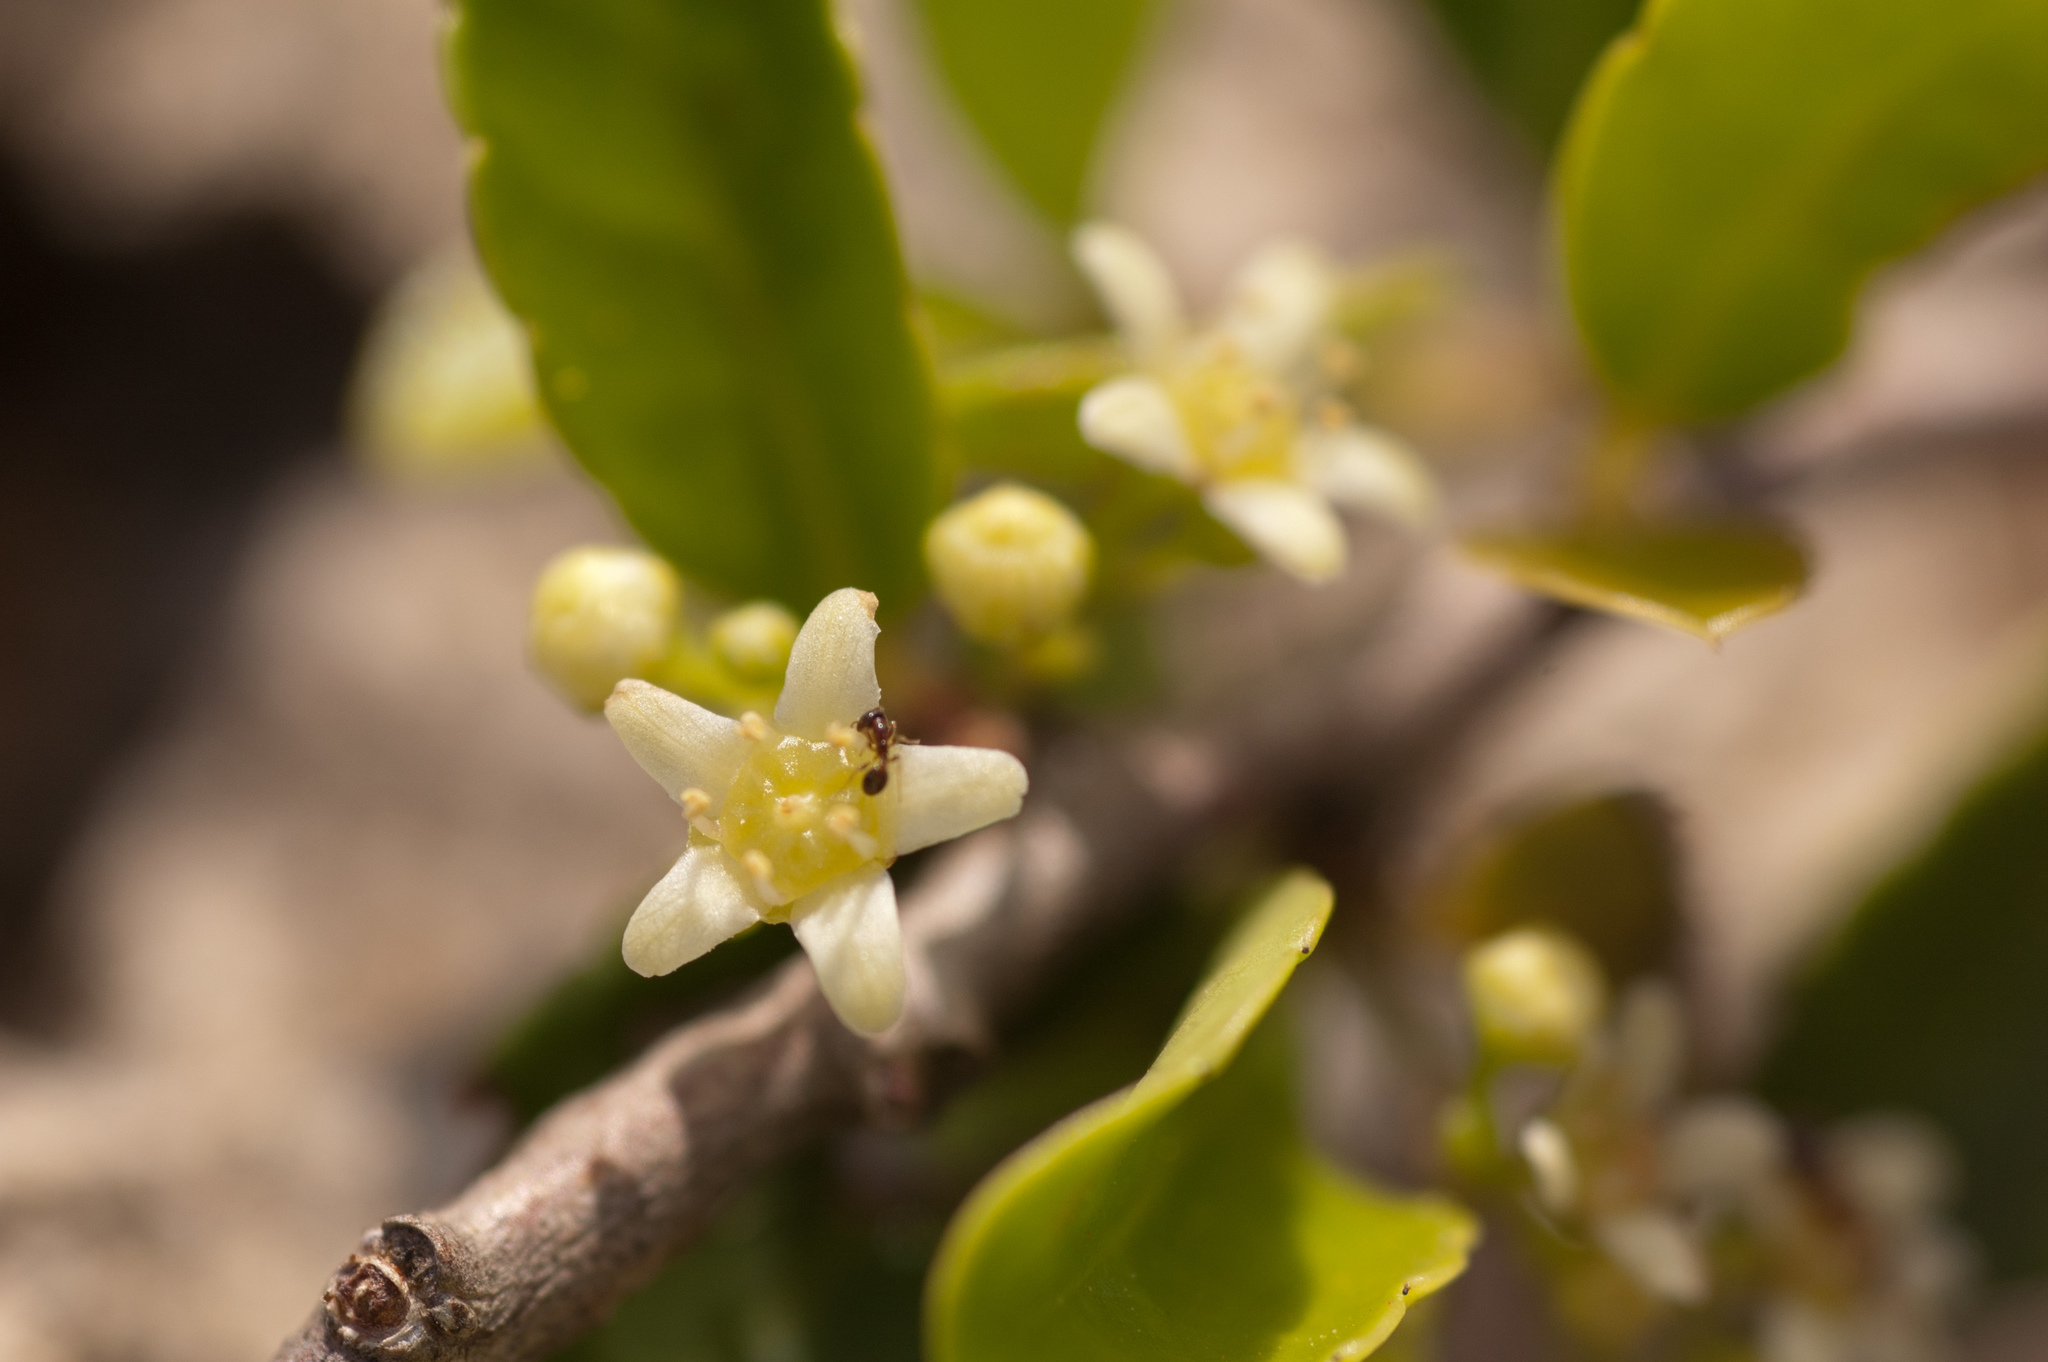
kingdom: Plantae
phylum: Tracheophyta
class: Magnoliopsida
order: Celastrales
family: Celastraceae
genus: Gymnosporia
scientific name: Gymnosporia diversifolia
